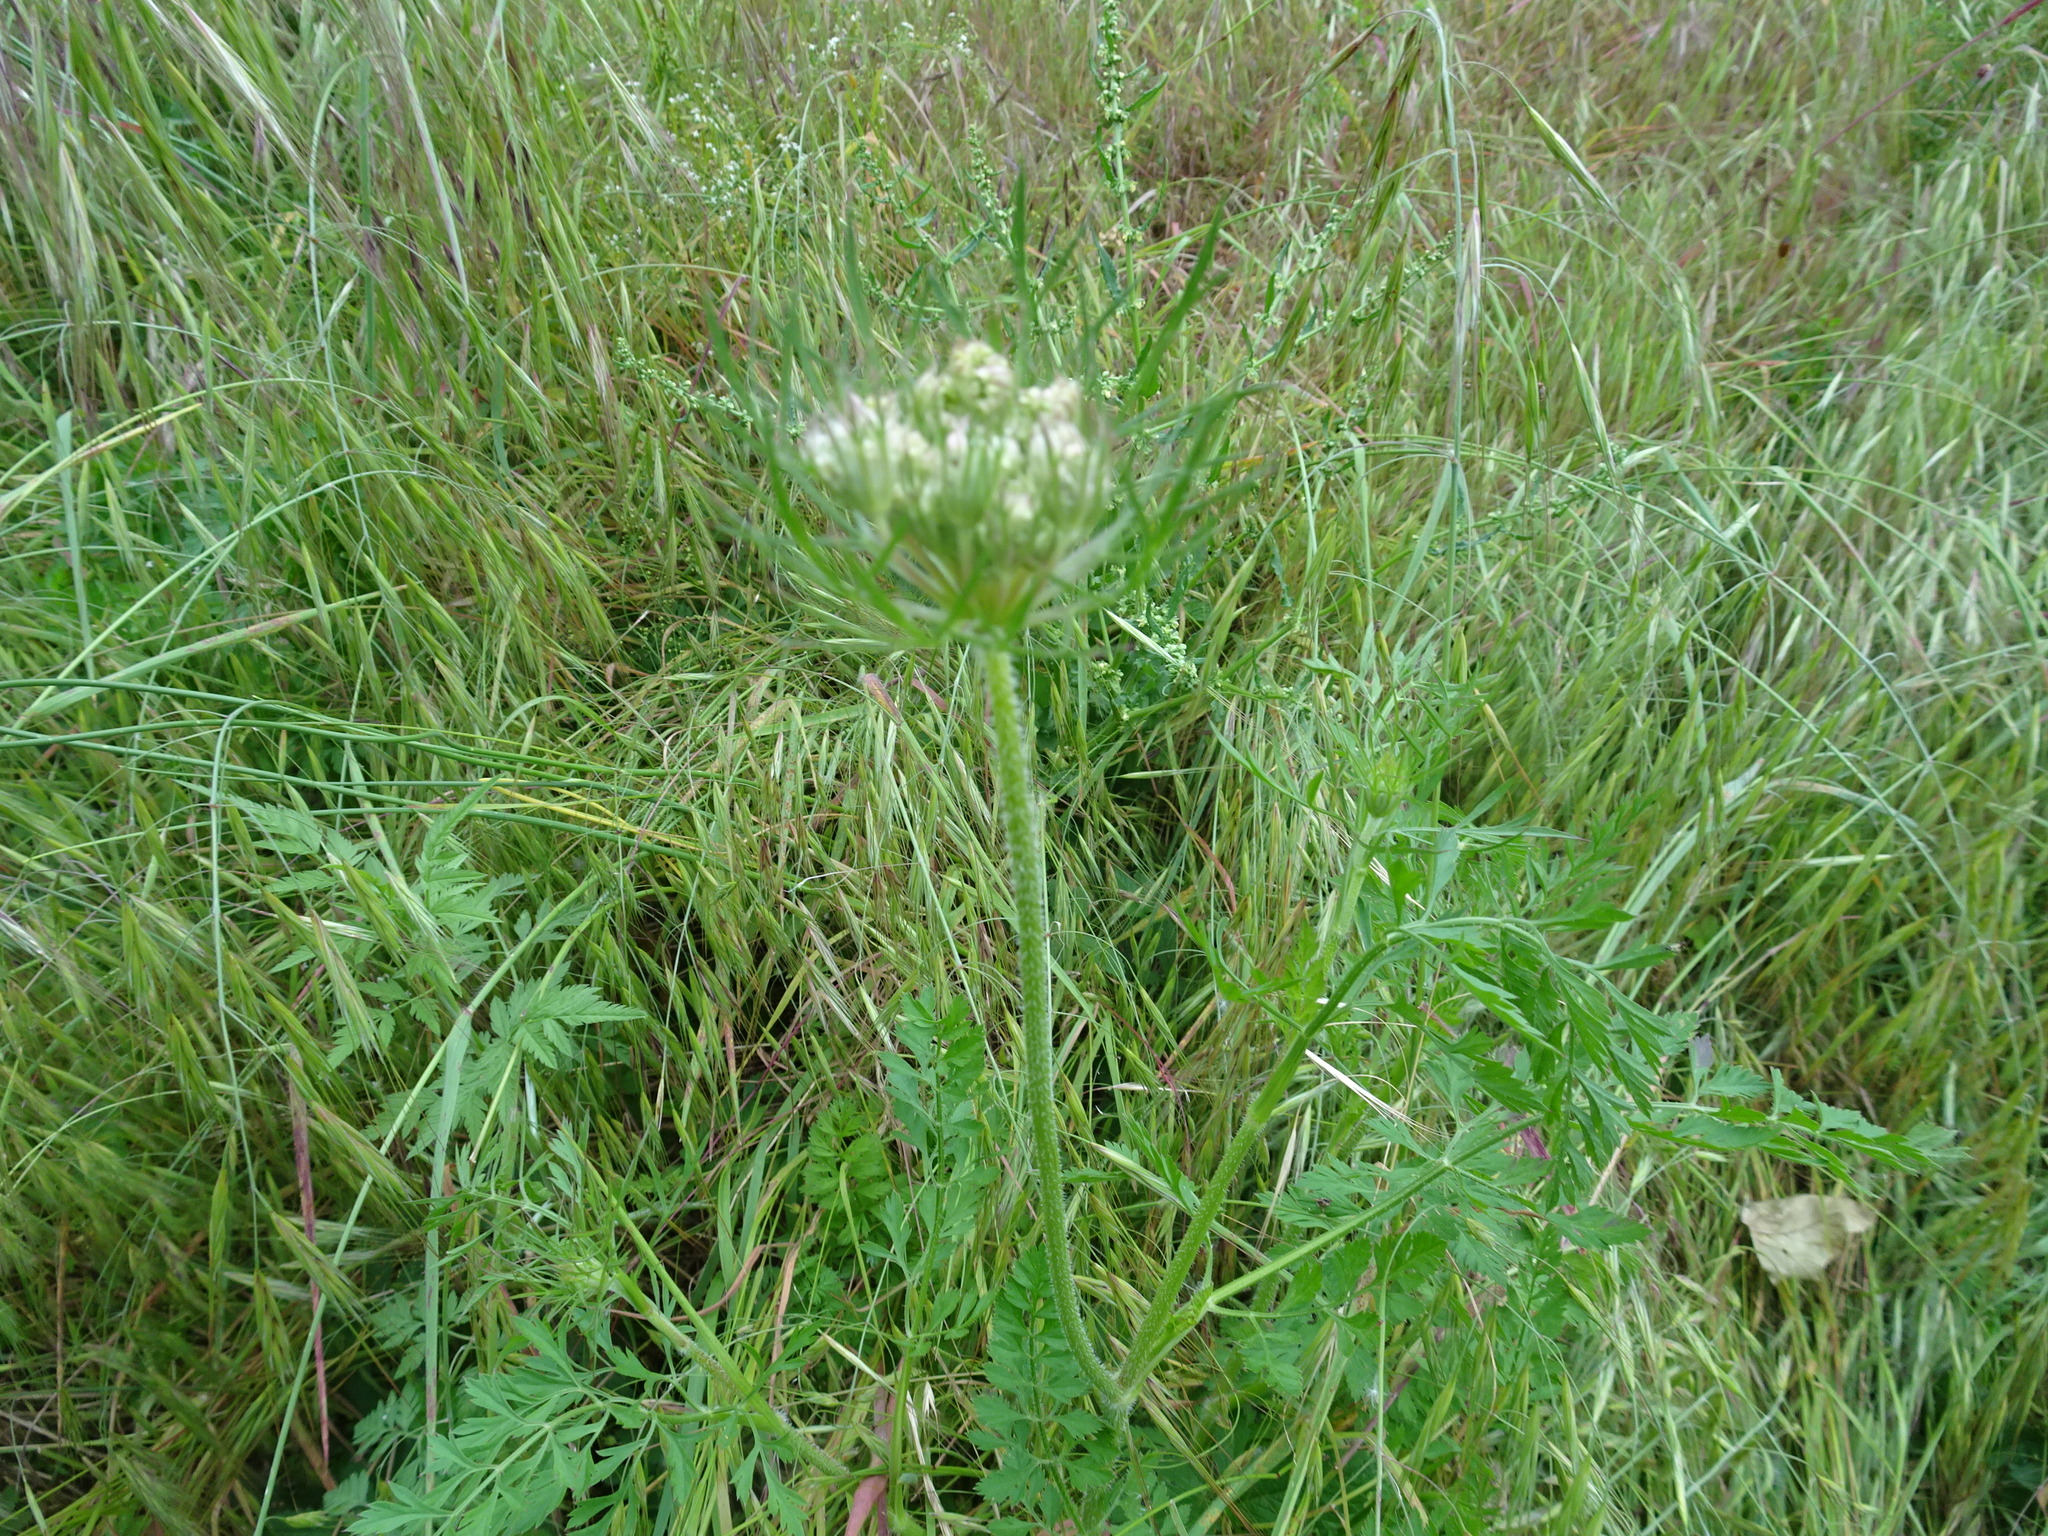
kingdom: Plantae
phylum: Tracheophyta
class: Magnoliopsida
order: Apiales
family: Apiaceae
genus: Daucus
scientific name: Daucus carota
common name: Wild carrot
